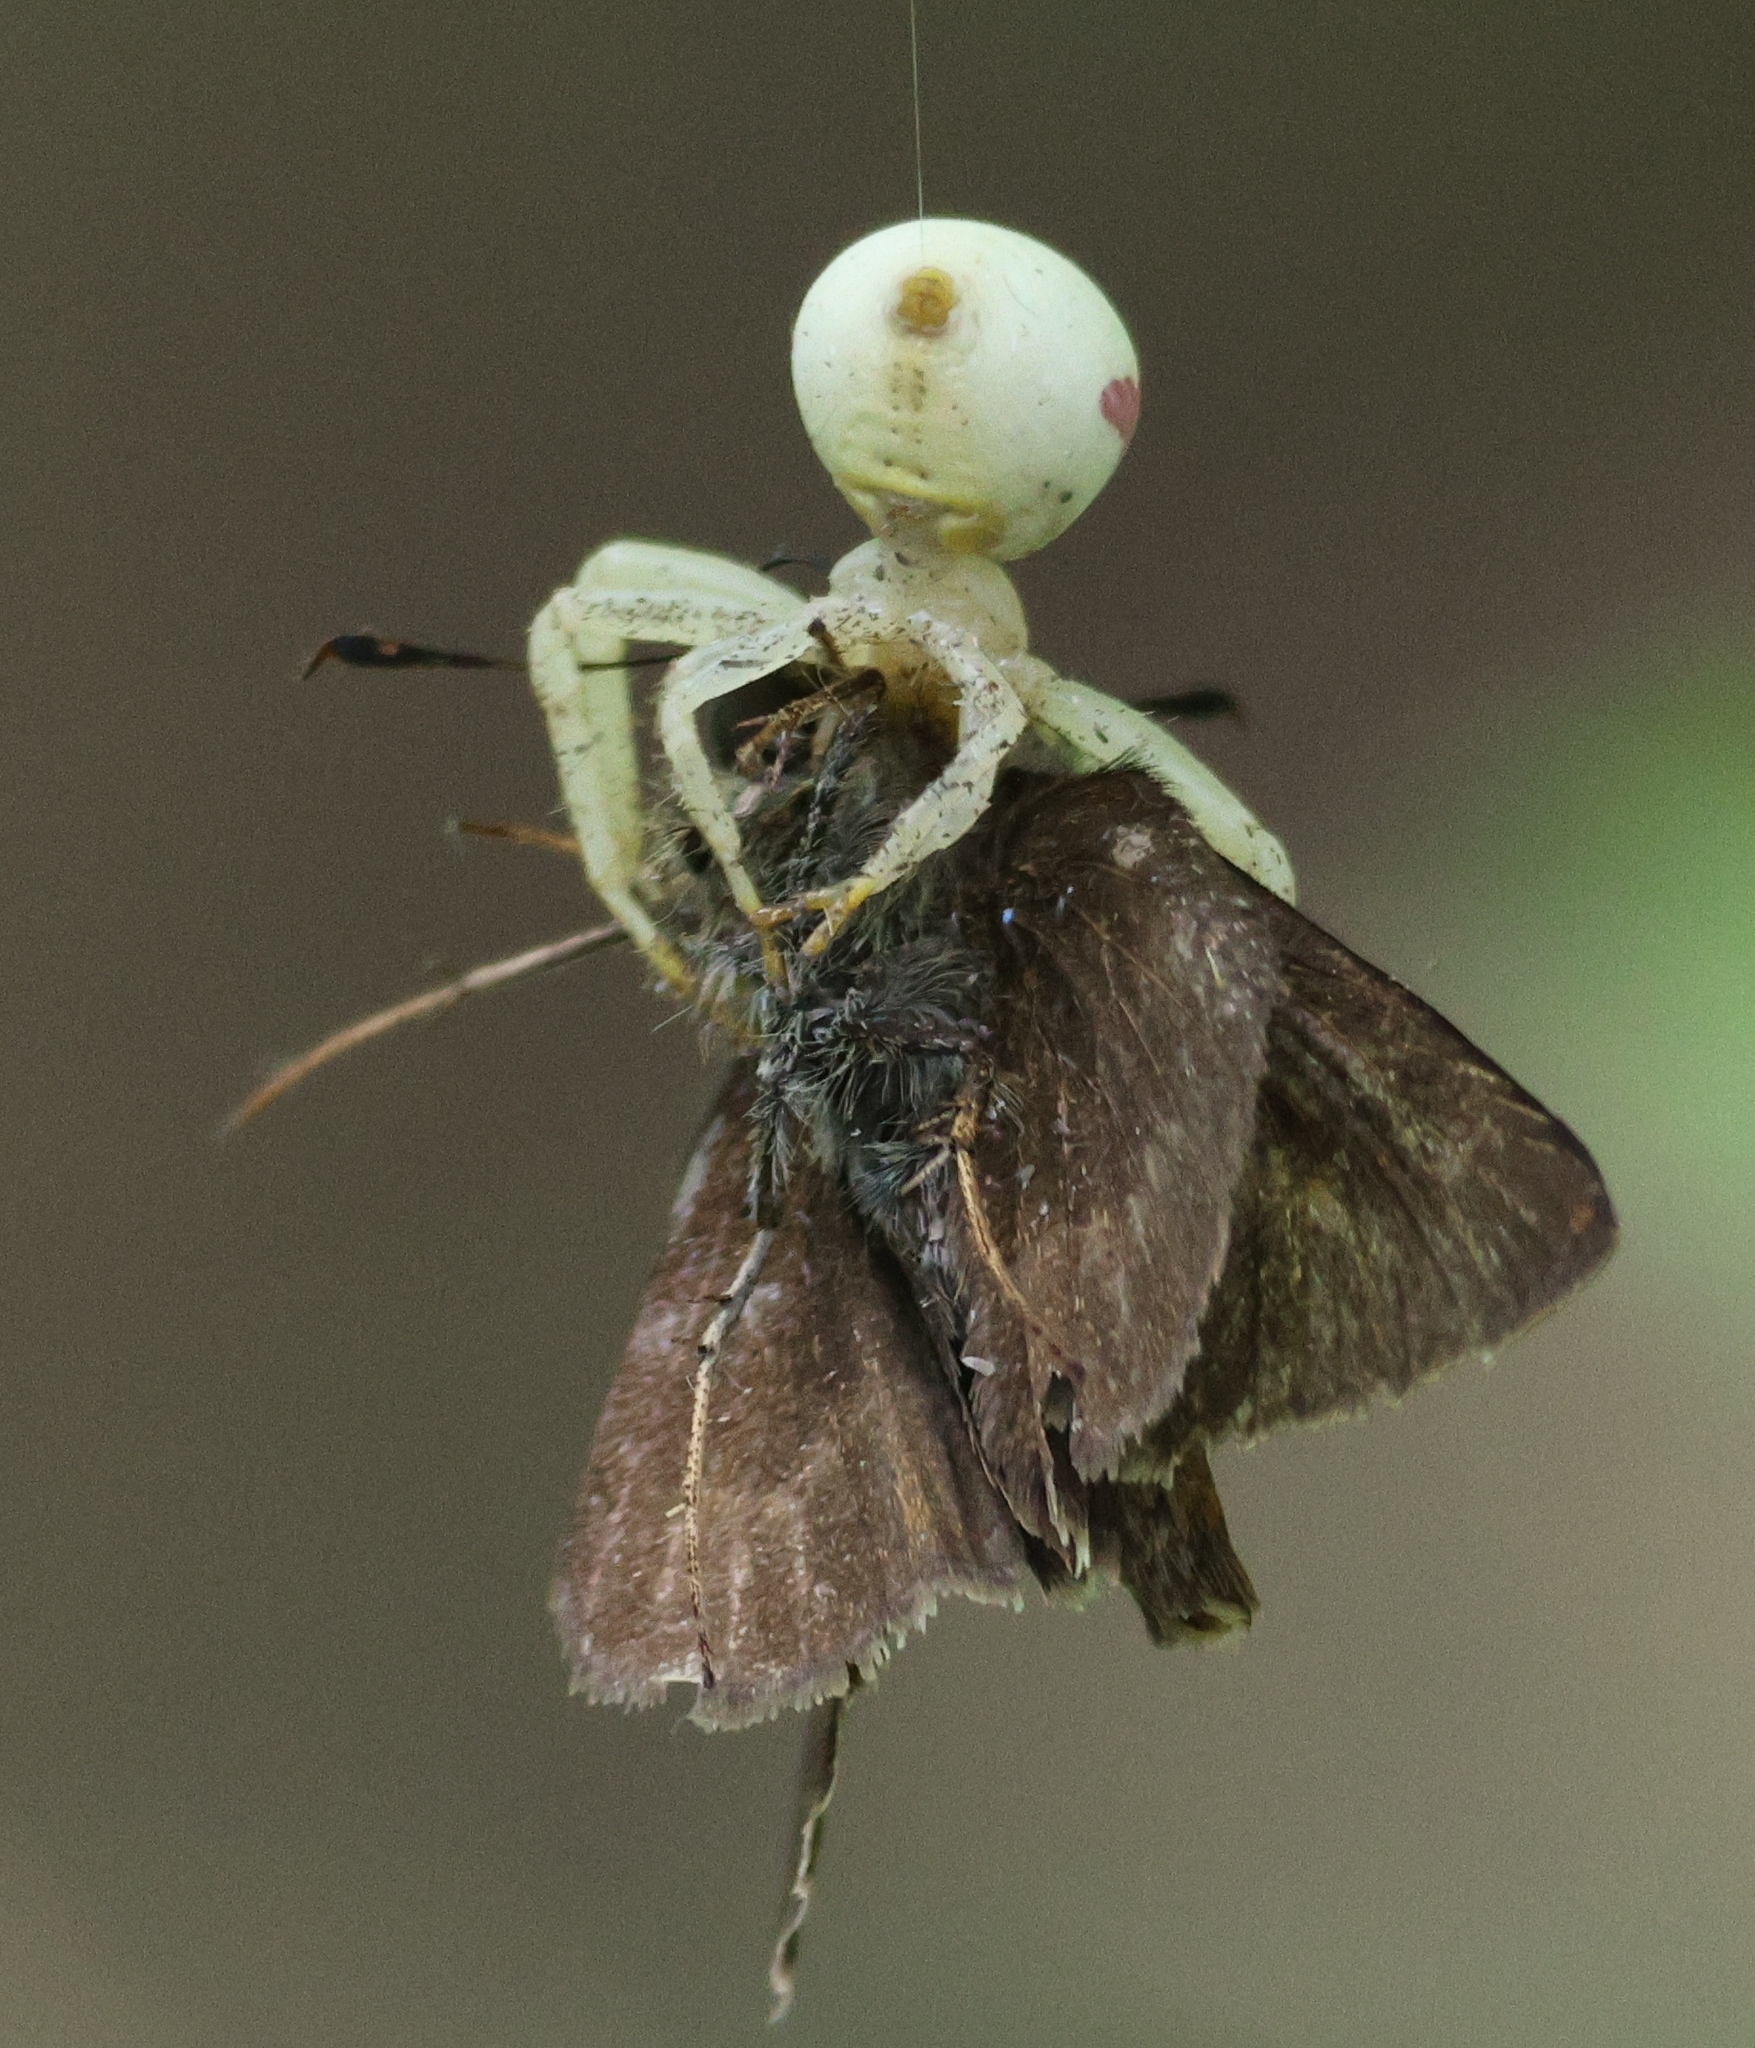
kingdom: Animalia
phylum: Arthropoda
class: Arachnida
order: Araneae
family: Thomisidae
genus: Misumena
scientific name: Misumena vatia
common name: Goldenrod crab spider
